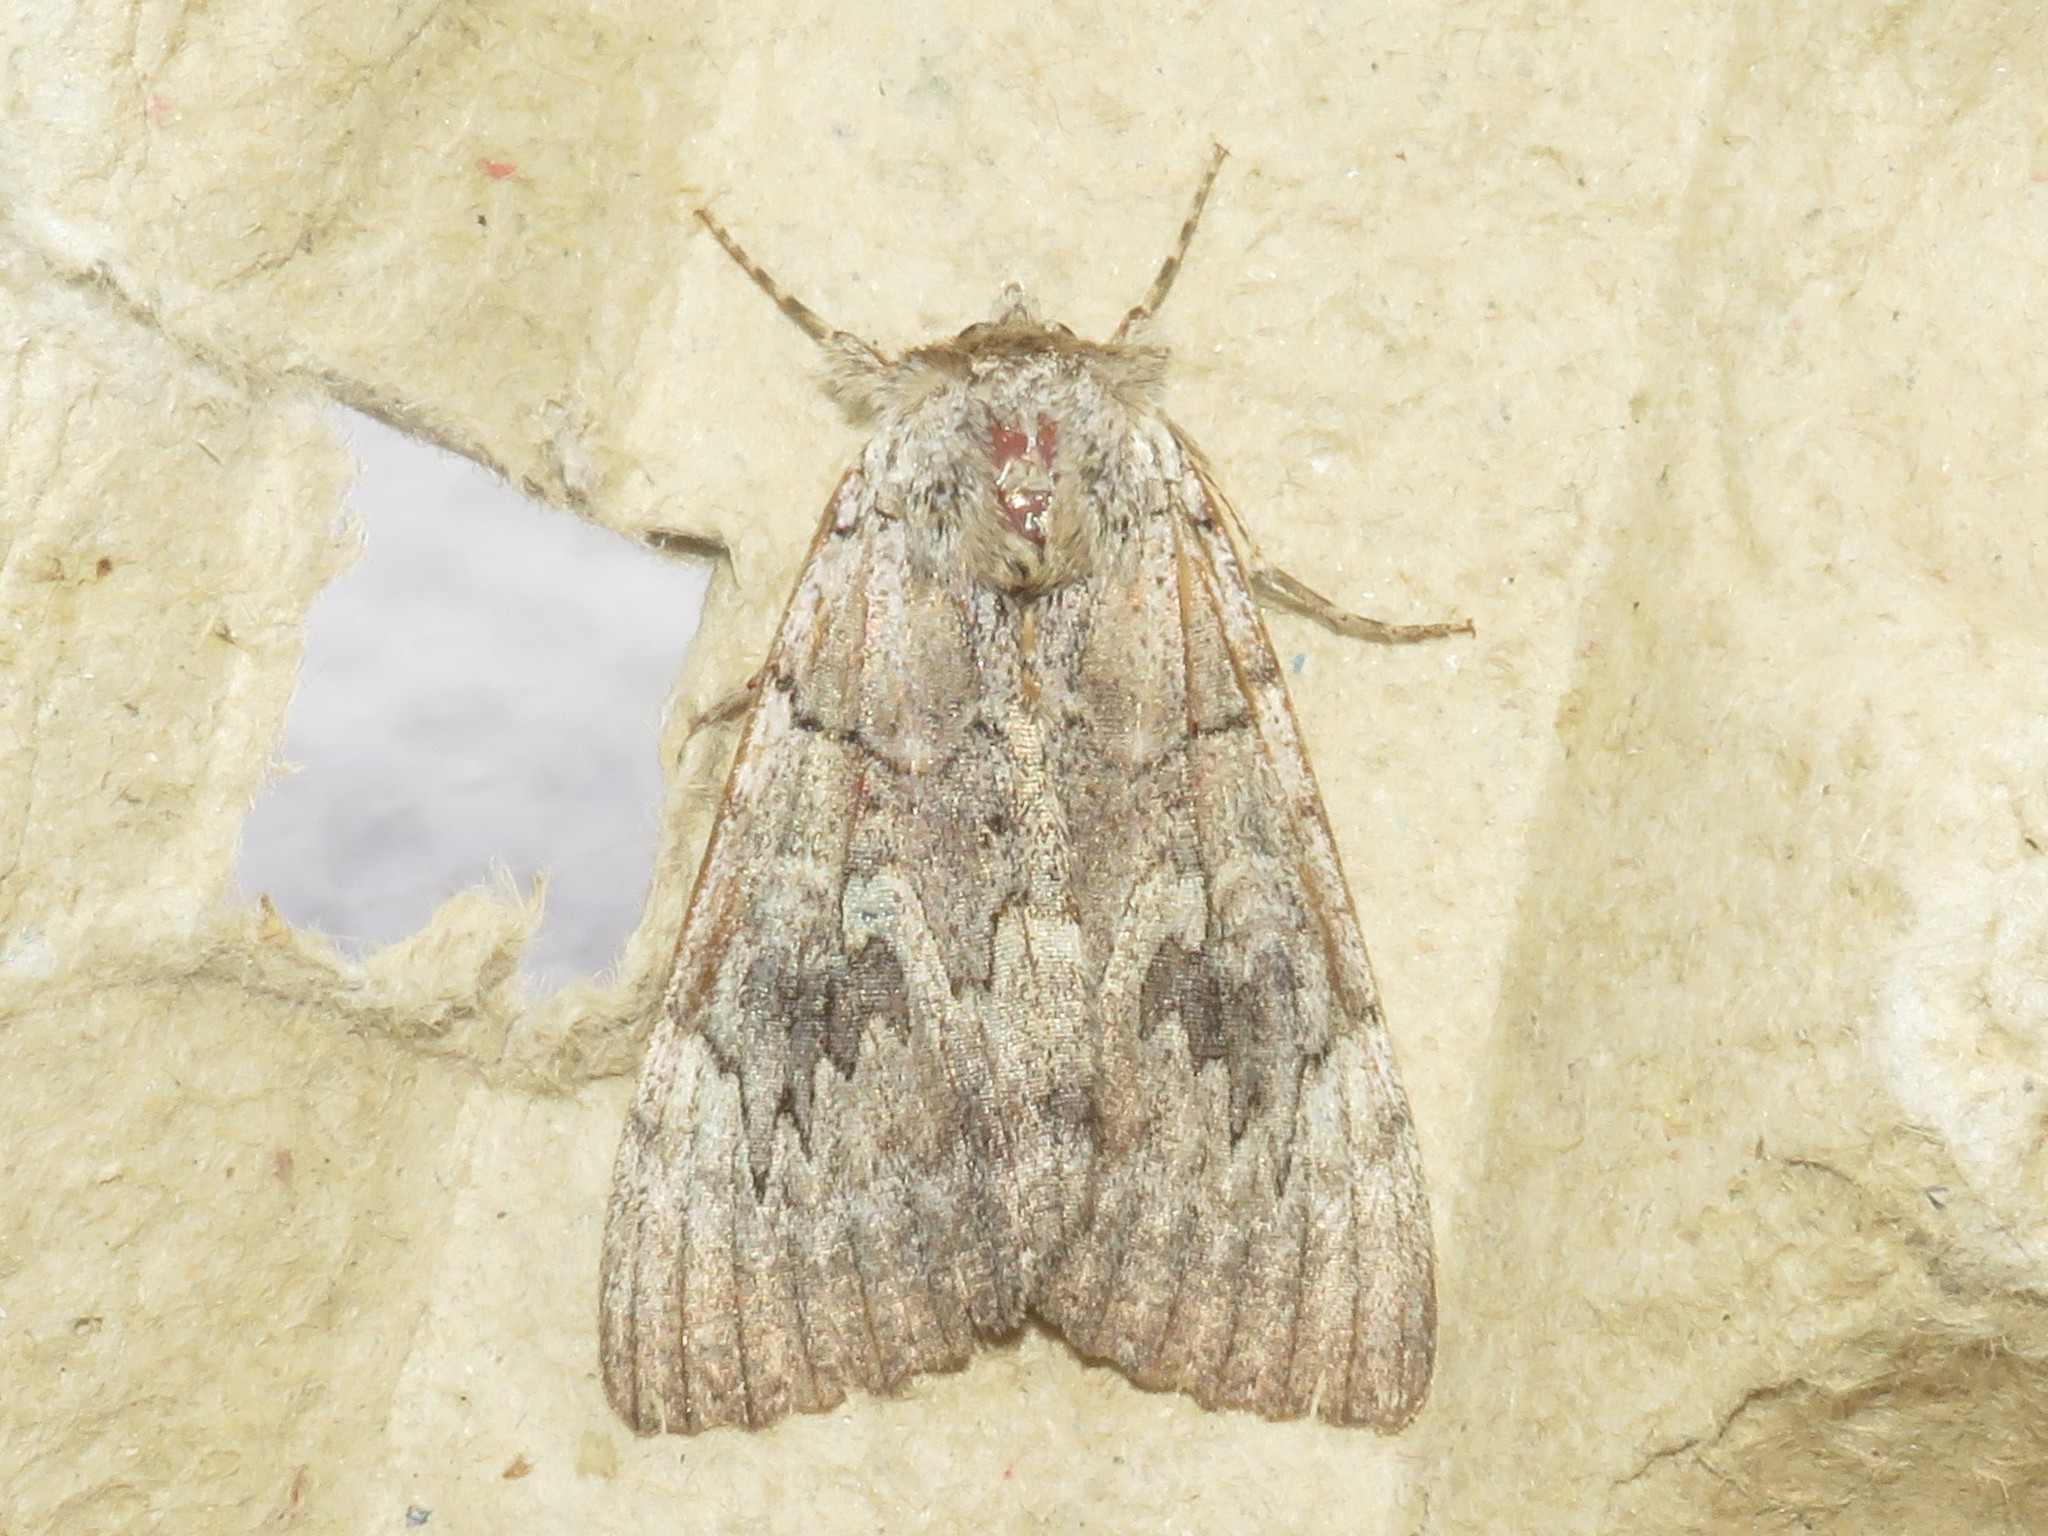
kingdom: Animalia
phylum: Arthropoda
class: Insecta
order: Lepidoptera
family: Erebidae
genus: Catocala
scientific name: Catocala concumbens
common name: Pink underwing
